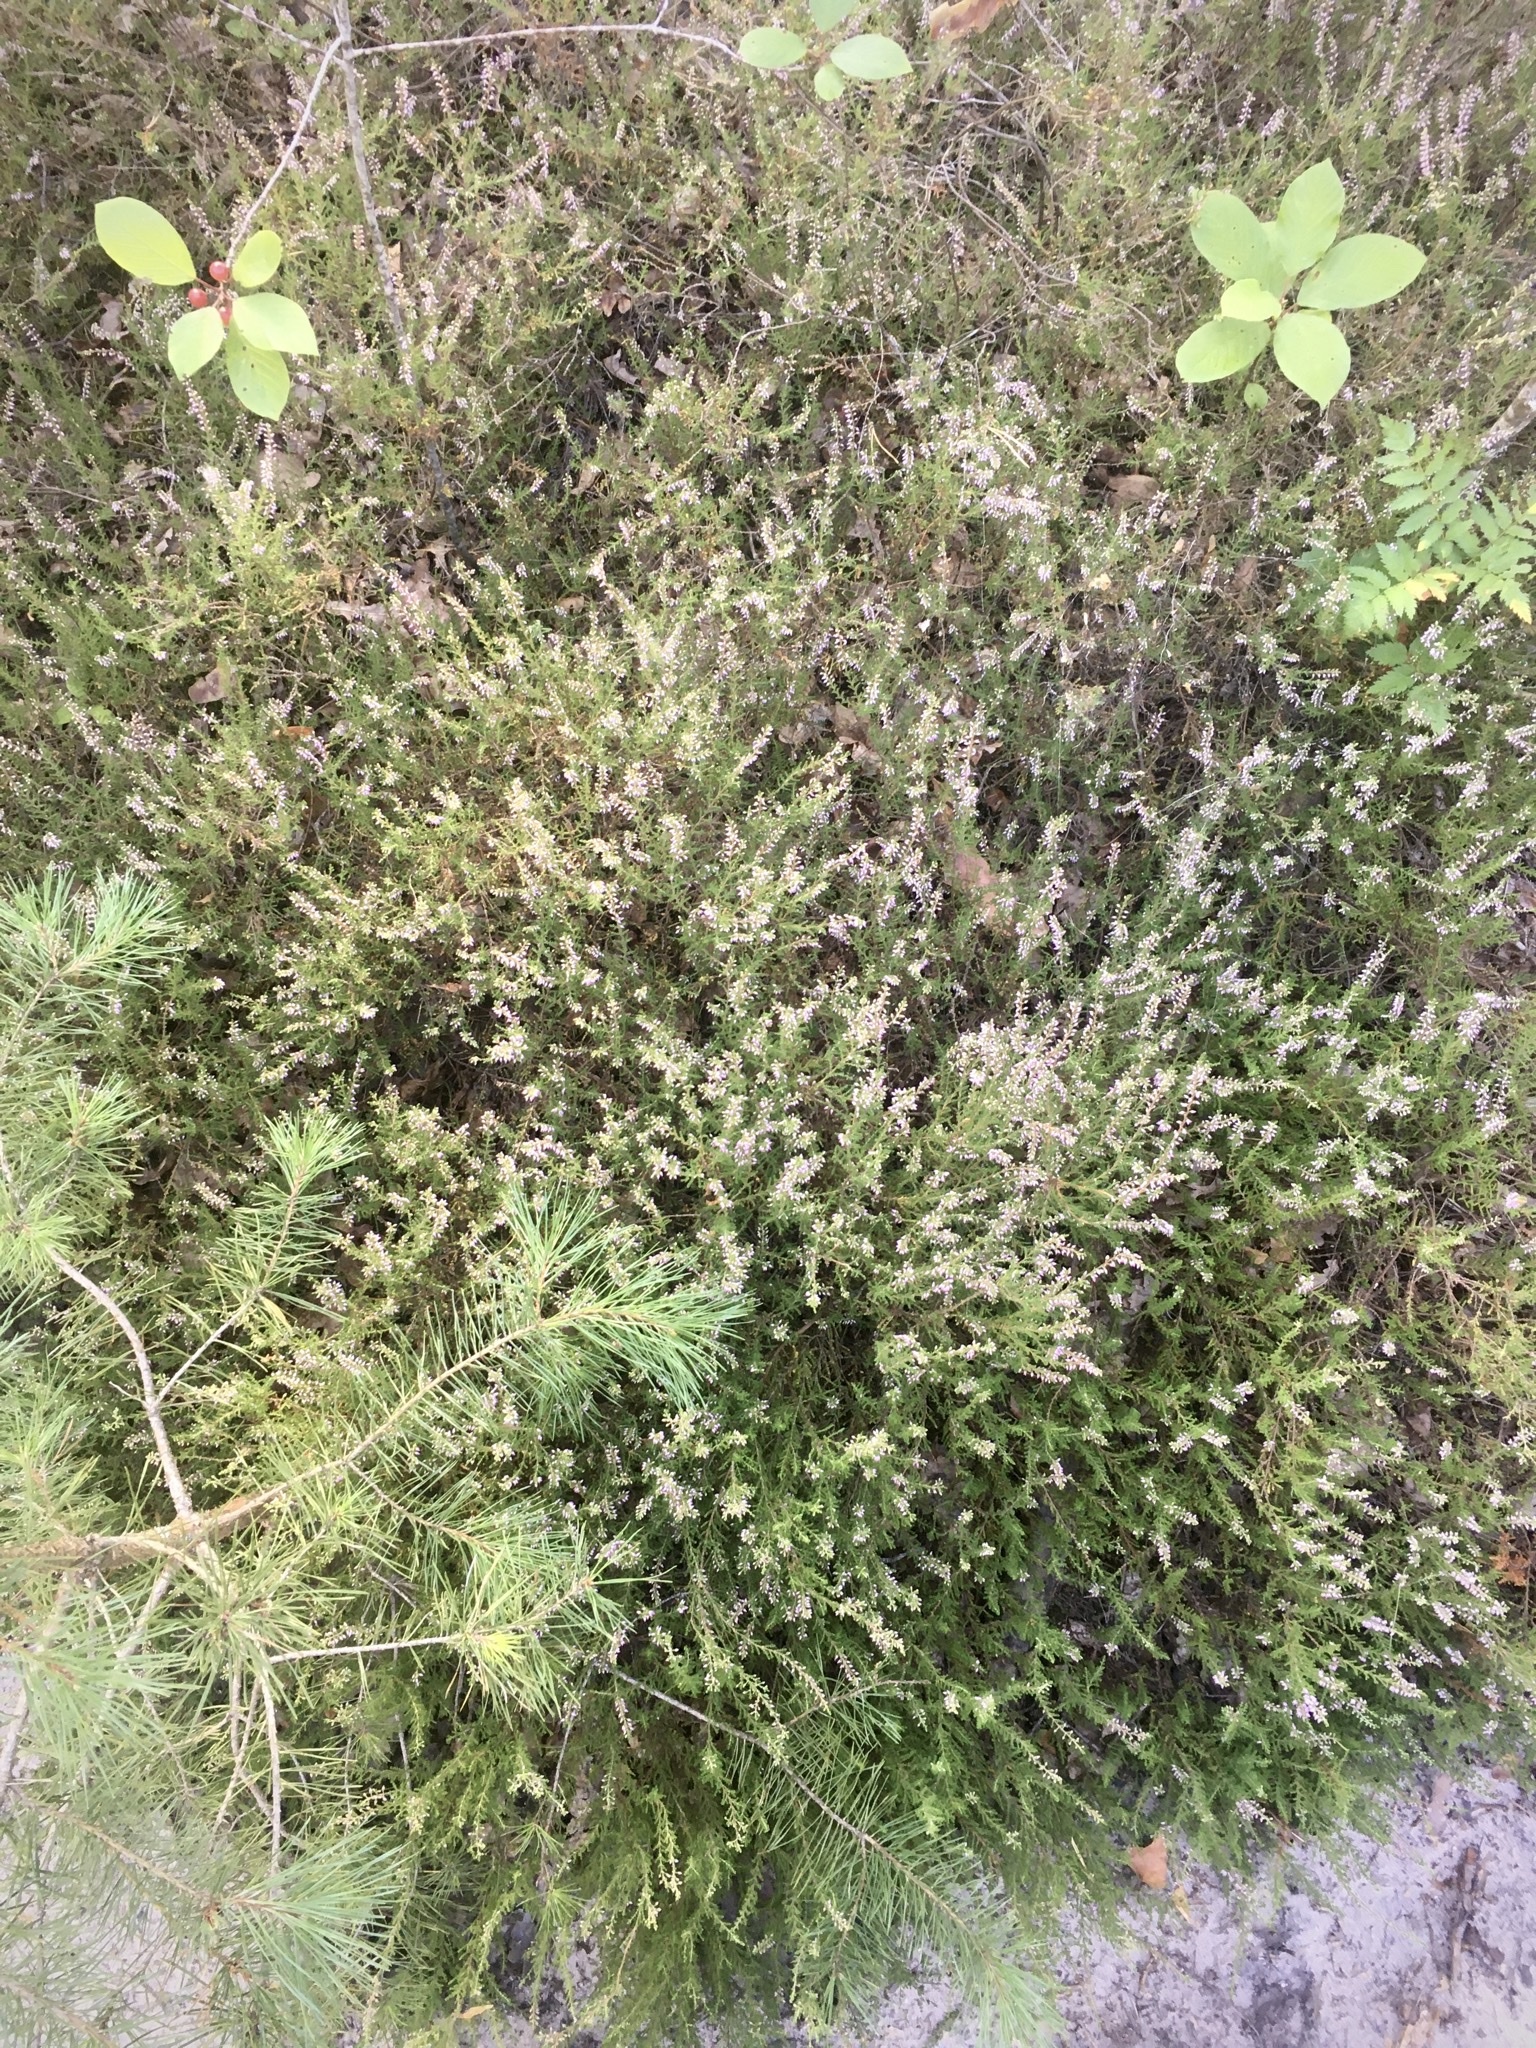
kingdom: Plantae
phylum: Tracheophyta
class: Magnoliopsida
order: Ericales
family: Ericaceae
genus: Calluna
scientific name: Calluna vulgaris
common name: Heather
